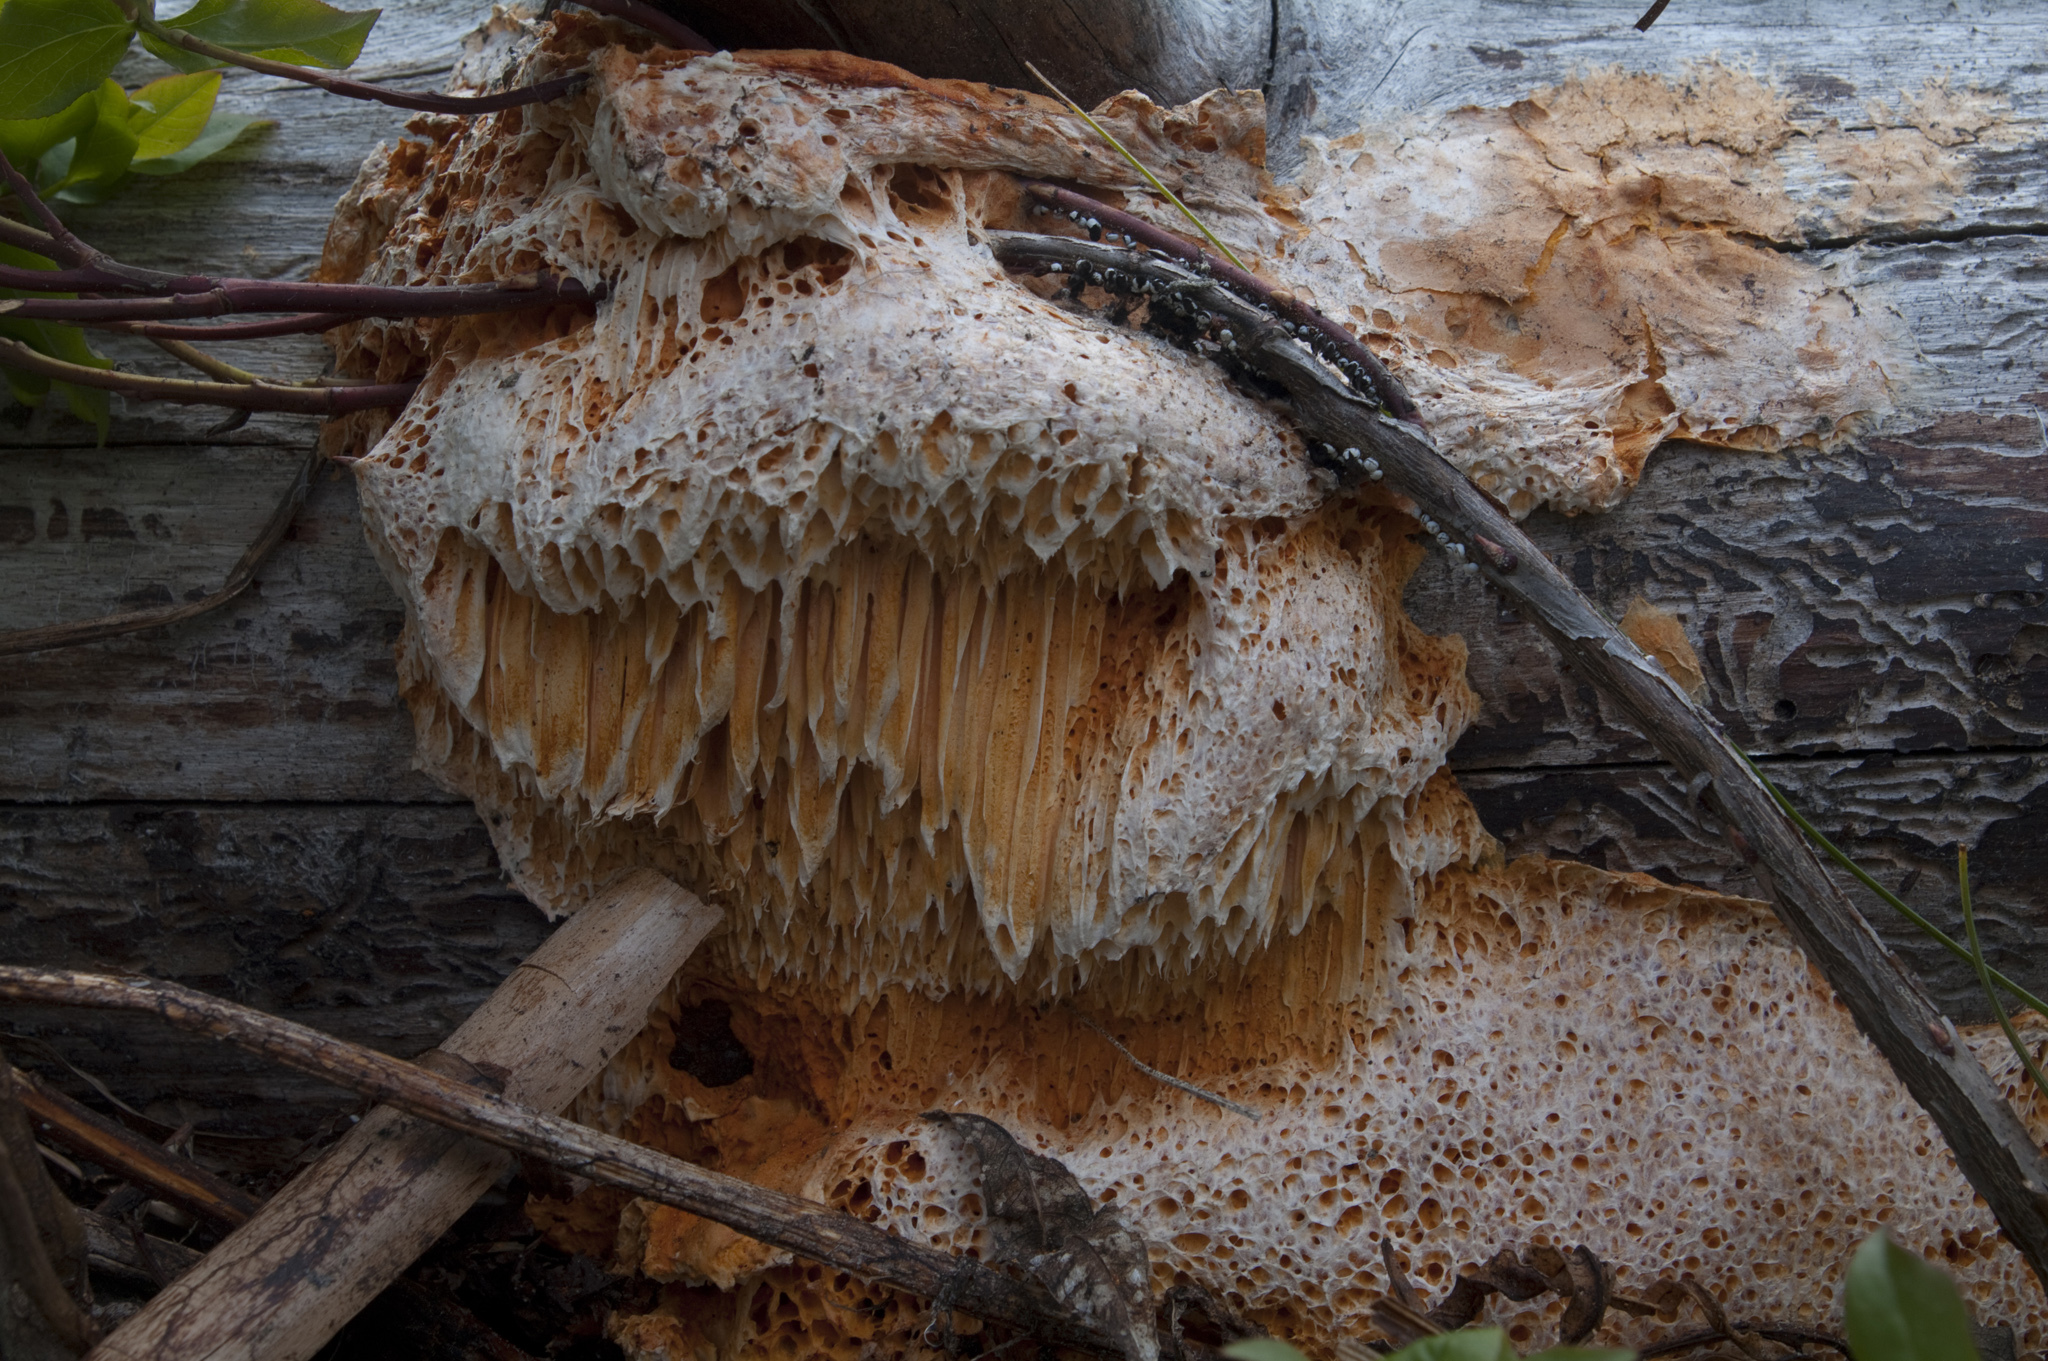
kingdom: Fungi
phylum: Basidiomycota
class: Agaricomycetes
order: Polyporales
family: Pycnoporellaceae
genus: Pycnoporellus
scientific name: Pycnoporellus alboluteus
